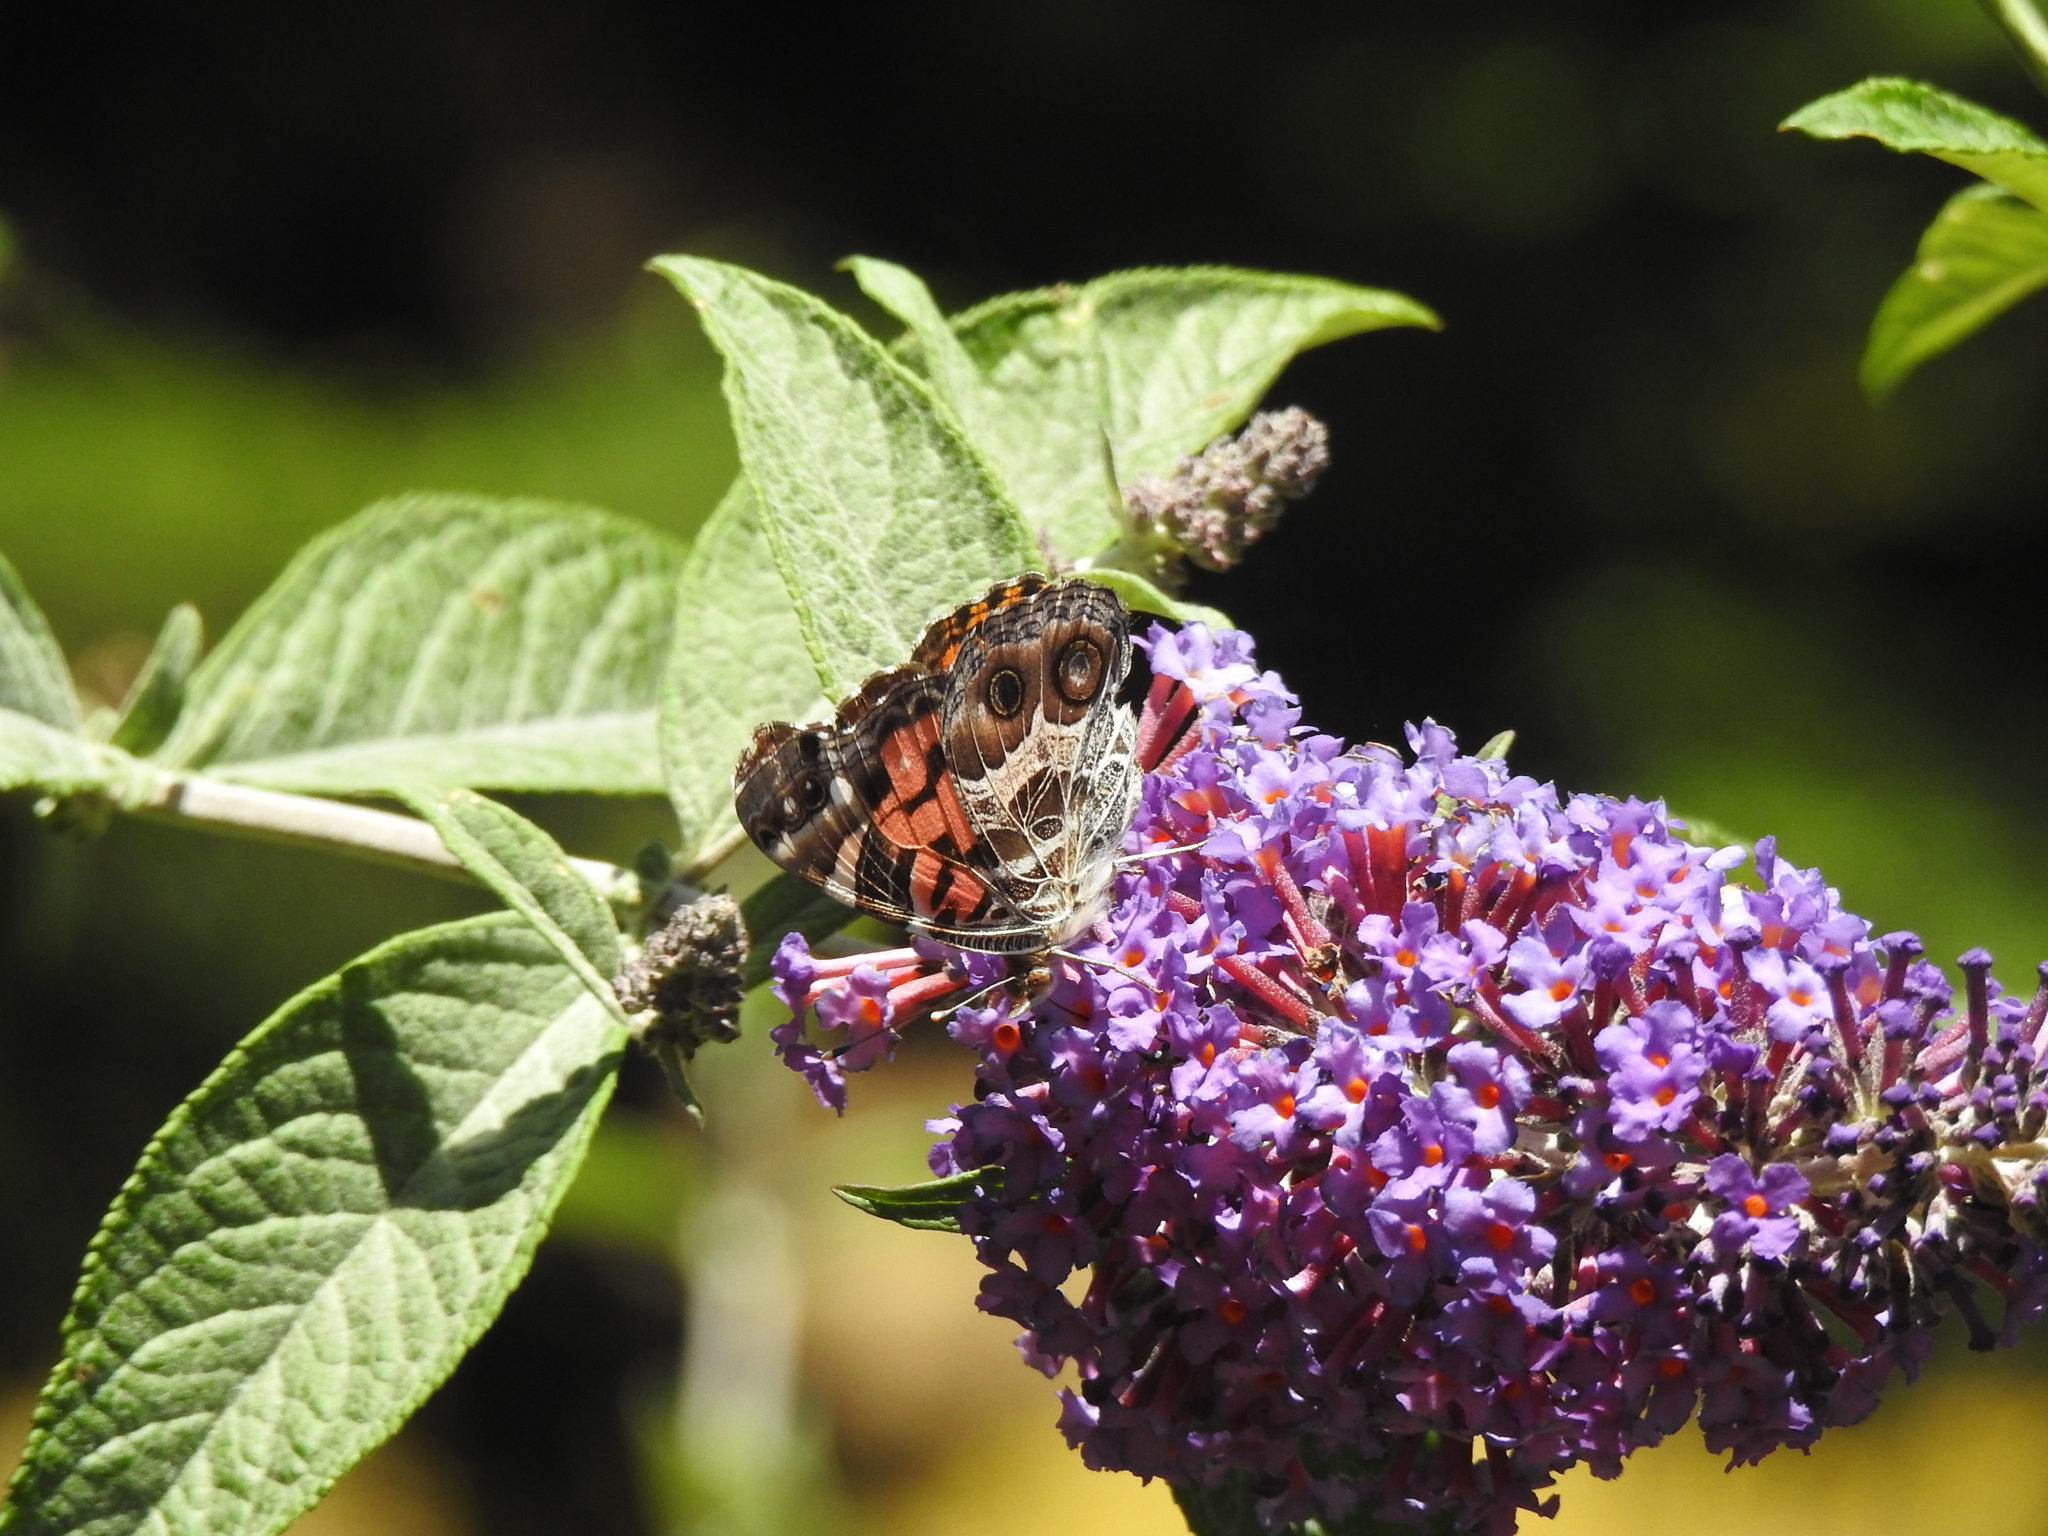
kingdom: Animalia
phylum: Arthropoda
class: Insecta
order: Lepidoptera
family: Nymphalidae
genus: Vanessa
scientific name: Vanessa virginiensis
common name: American lady
